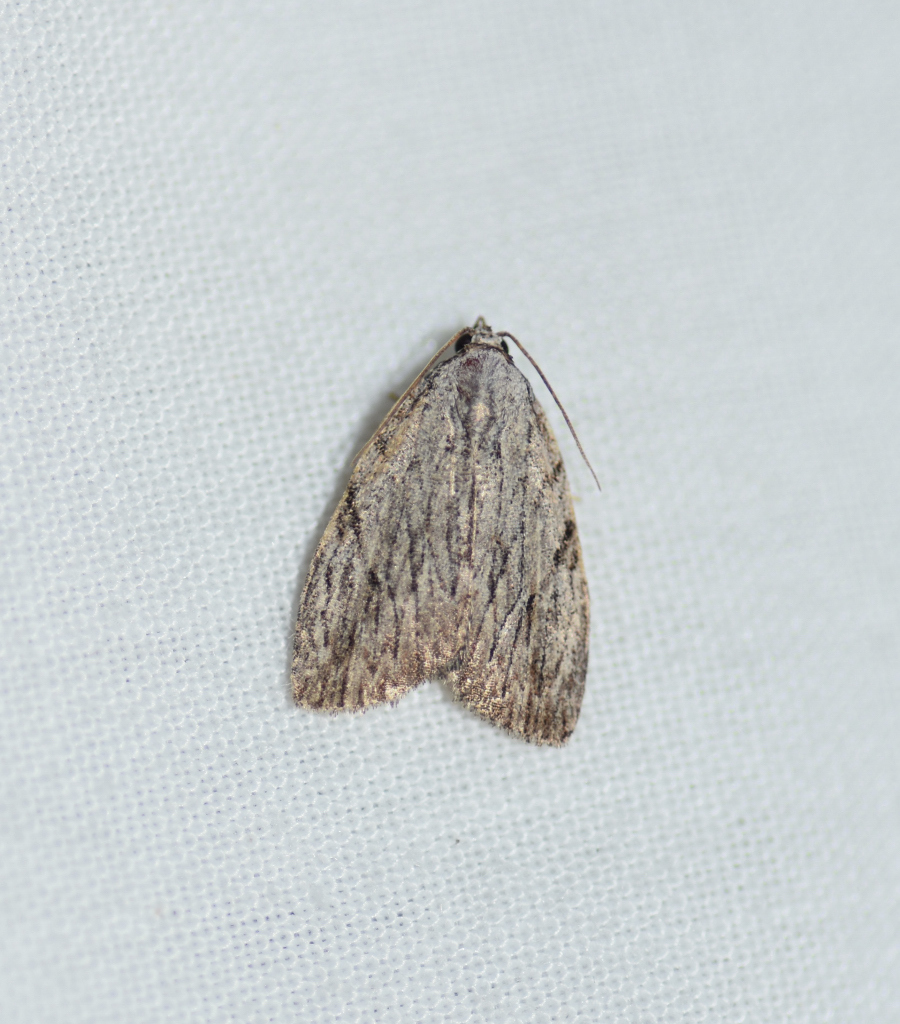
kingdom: Animalia
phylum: Arthropoda
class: Insecta
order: Lepidoptera
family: Noctuidae
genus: Balsa
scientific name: Balsa tristrigella
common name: Three-lined balsa moth
